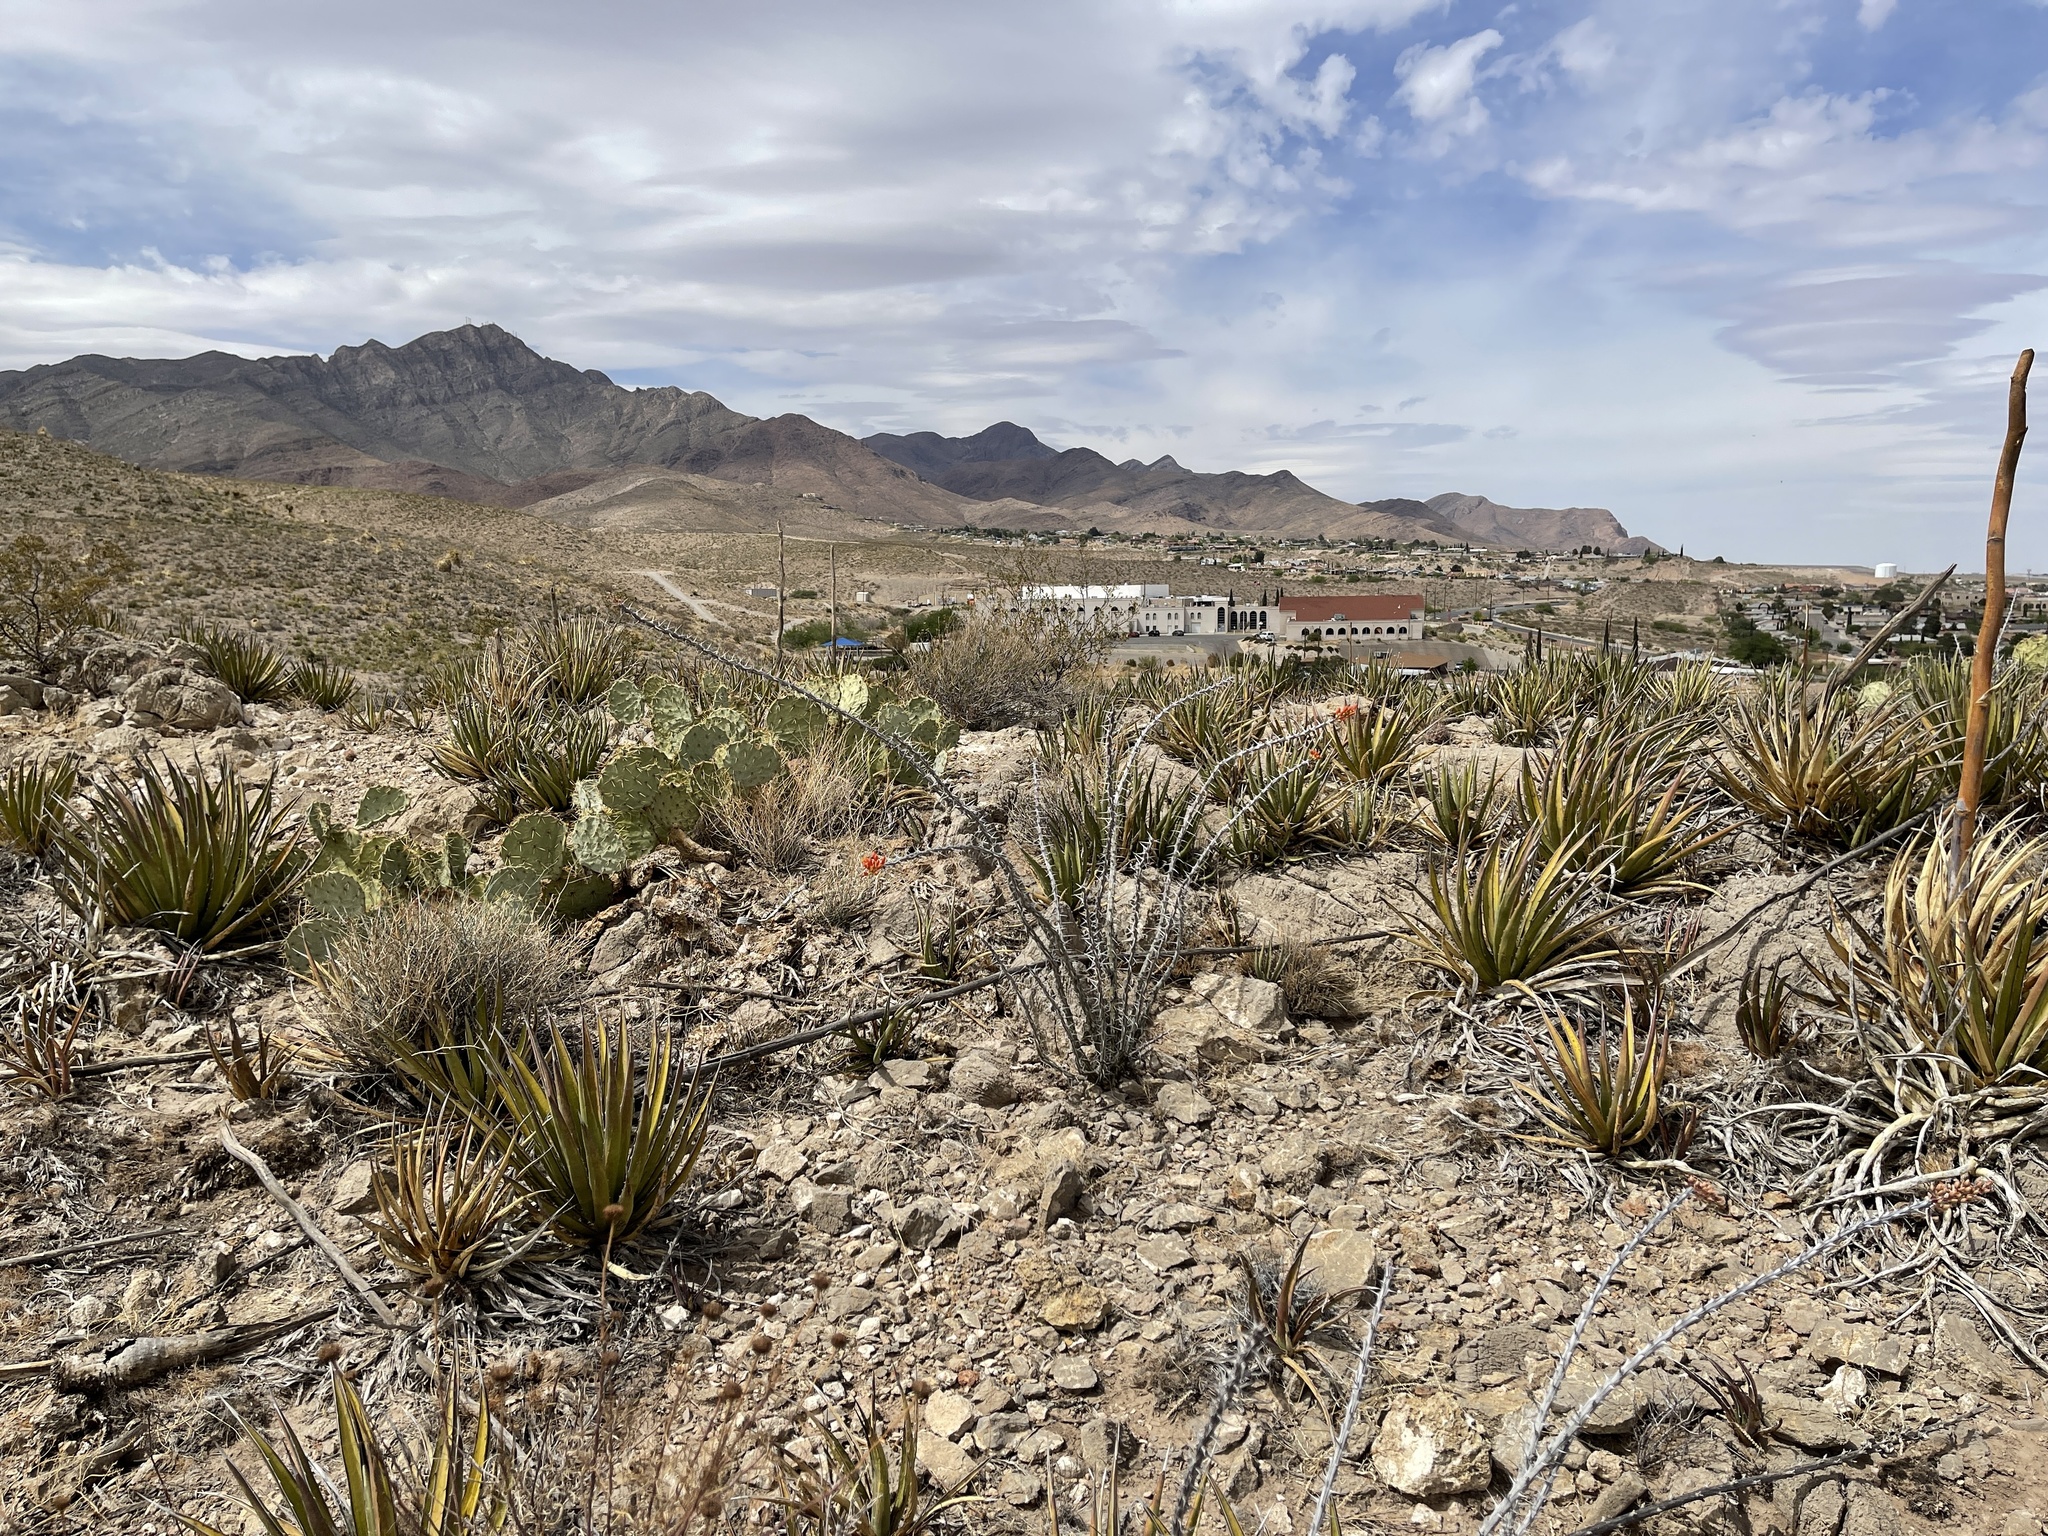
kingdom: Plantae
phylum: Tracheophyta
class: Liliopsida
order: Asparagales
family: Asparagaceae
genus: Agave
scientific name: Agave lechuguilla
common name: Lecheguilla agave
